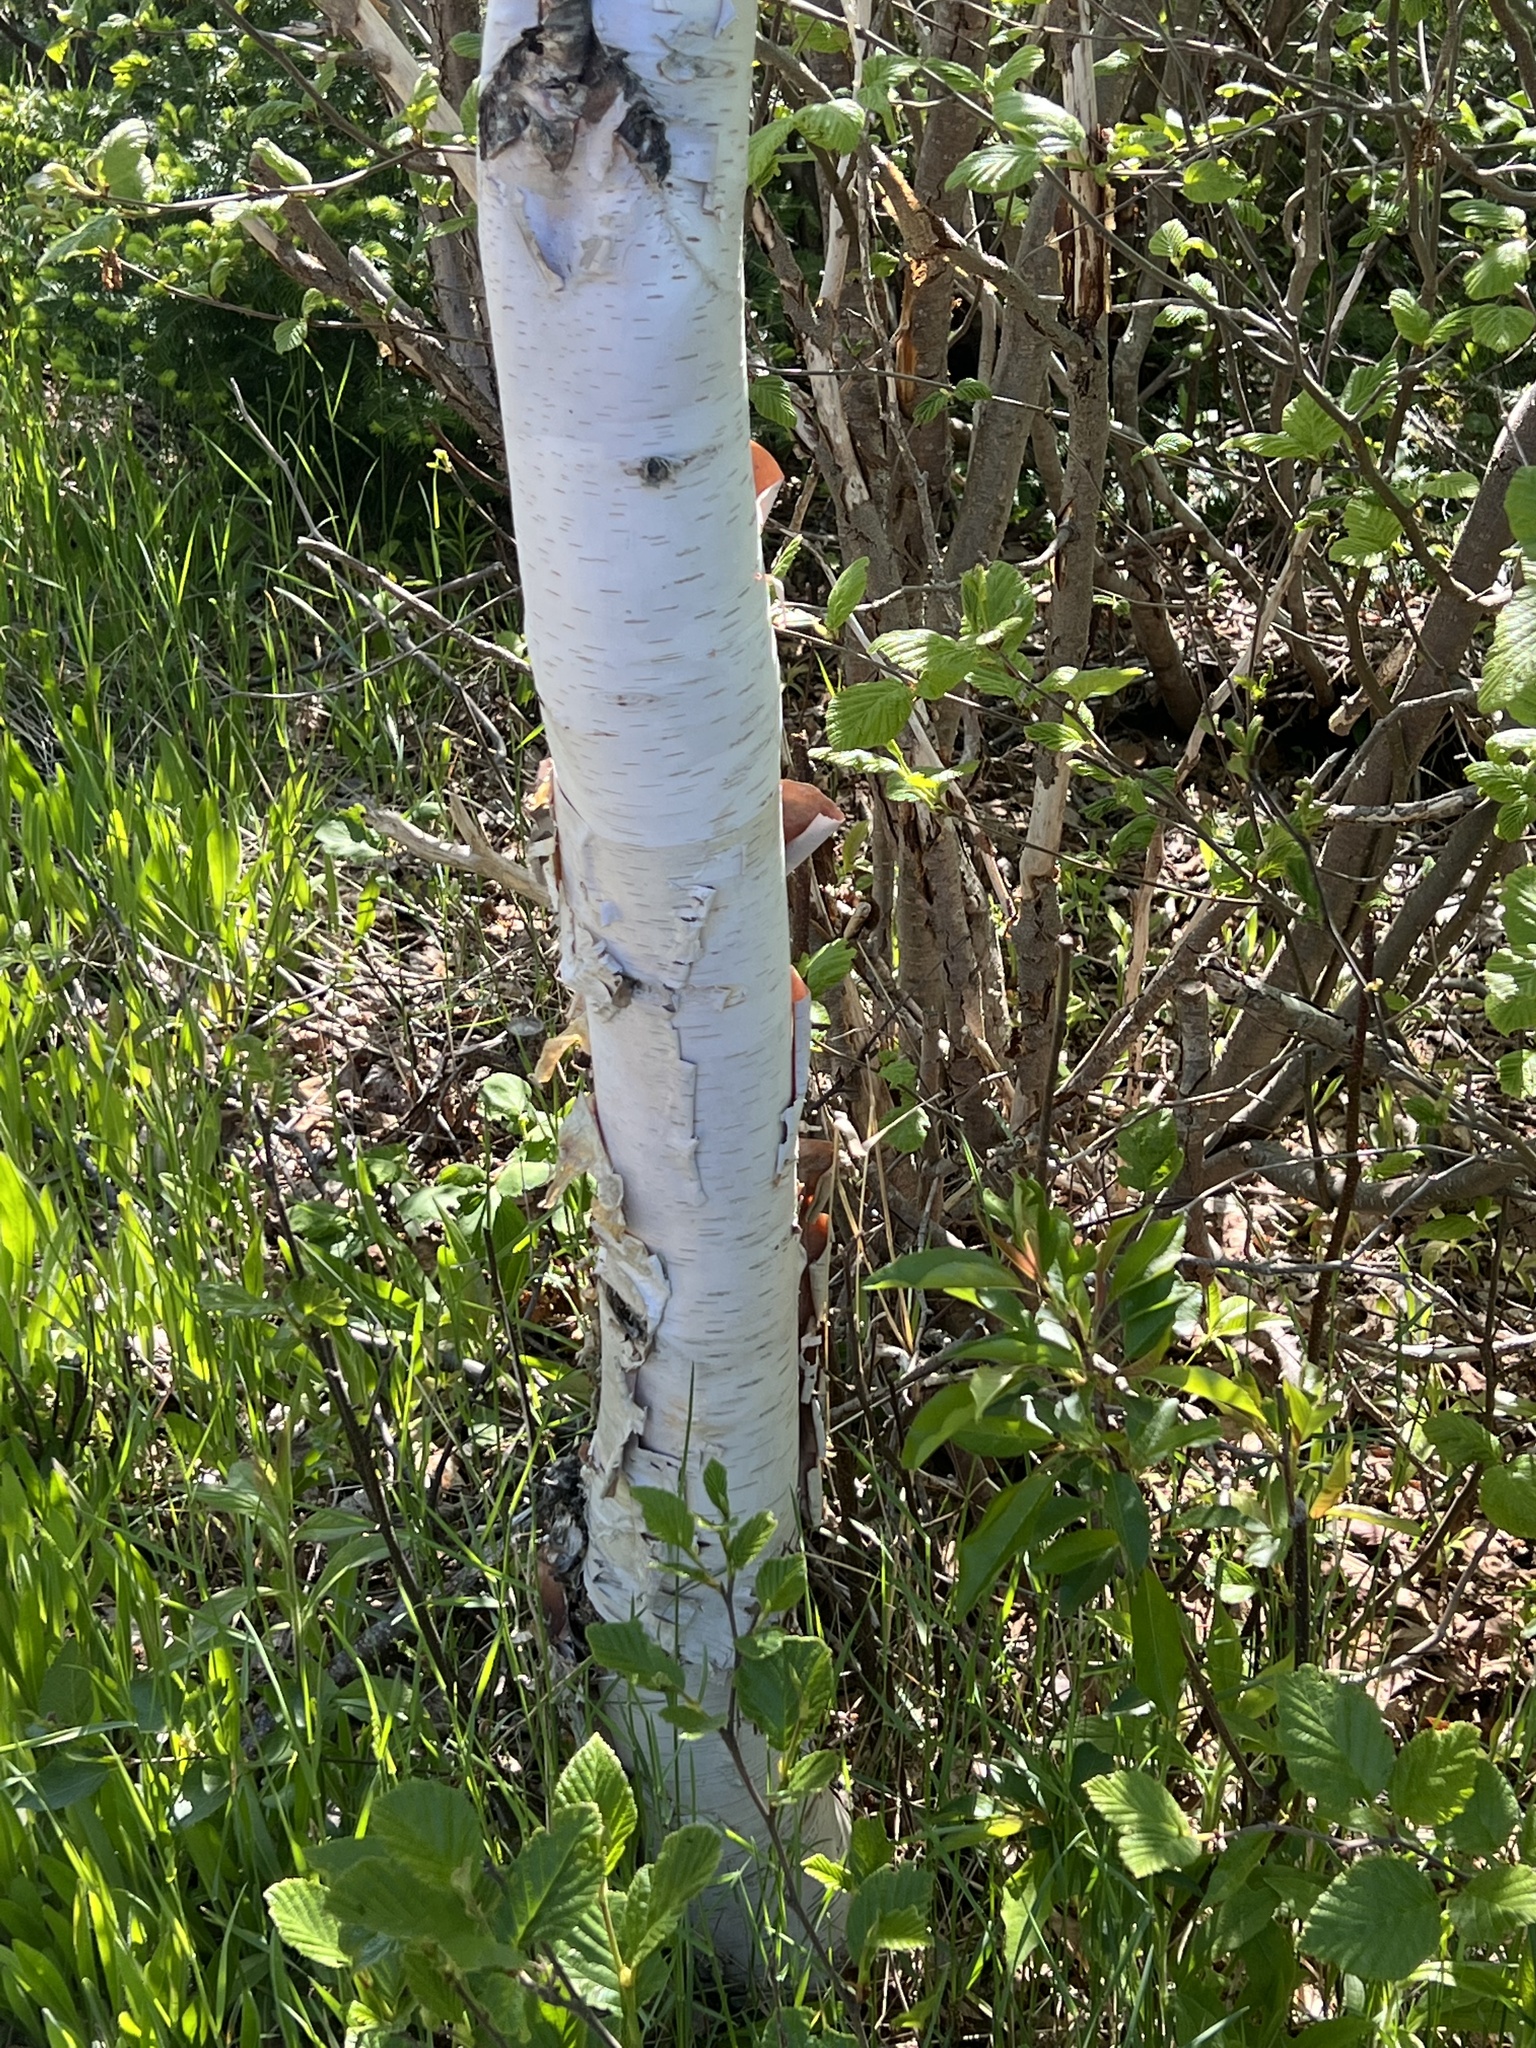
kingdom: Plantae
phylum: Tracheophyta
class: Magnoliopsida
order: Fagales
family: Betulaceae
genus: Betula
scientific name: Betula papyrifera
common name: Paper birch
